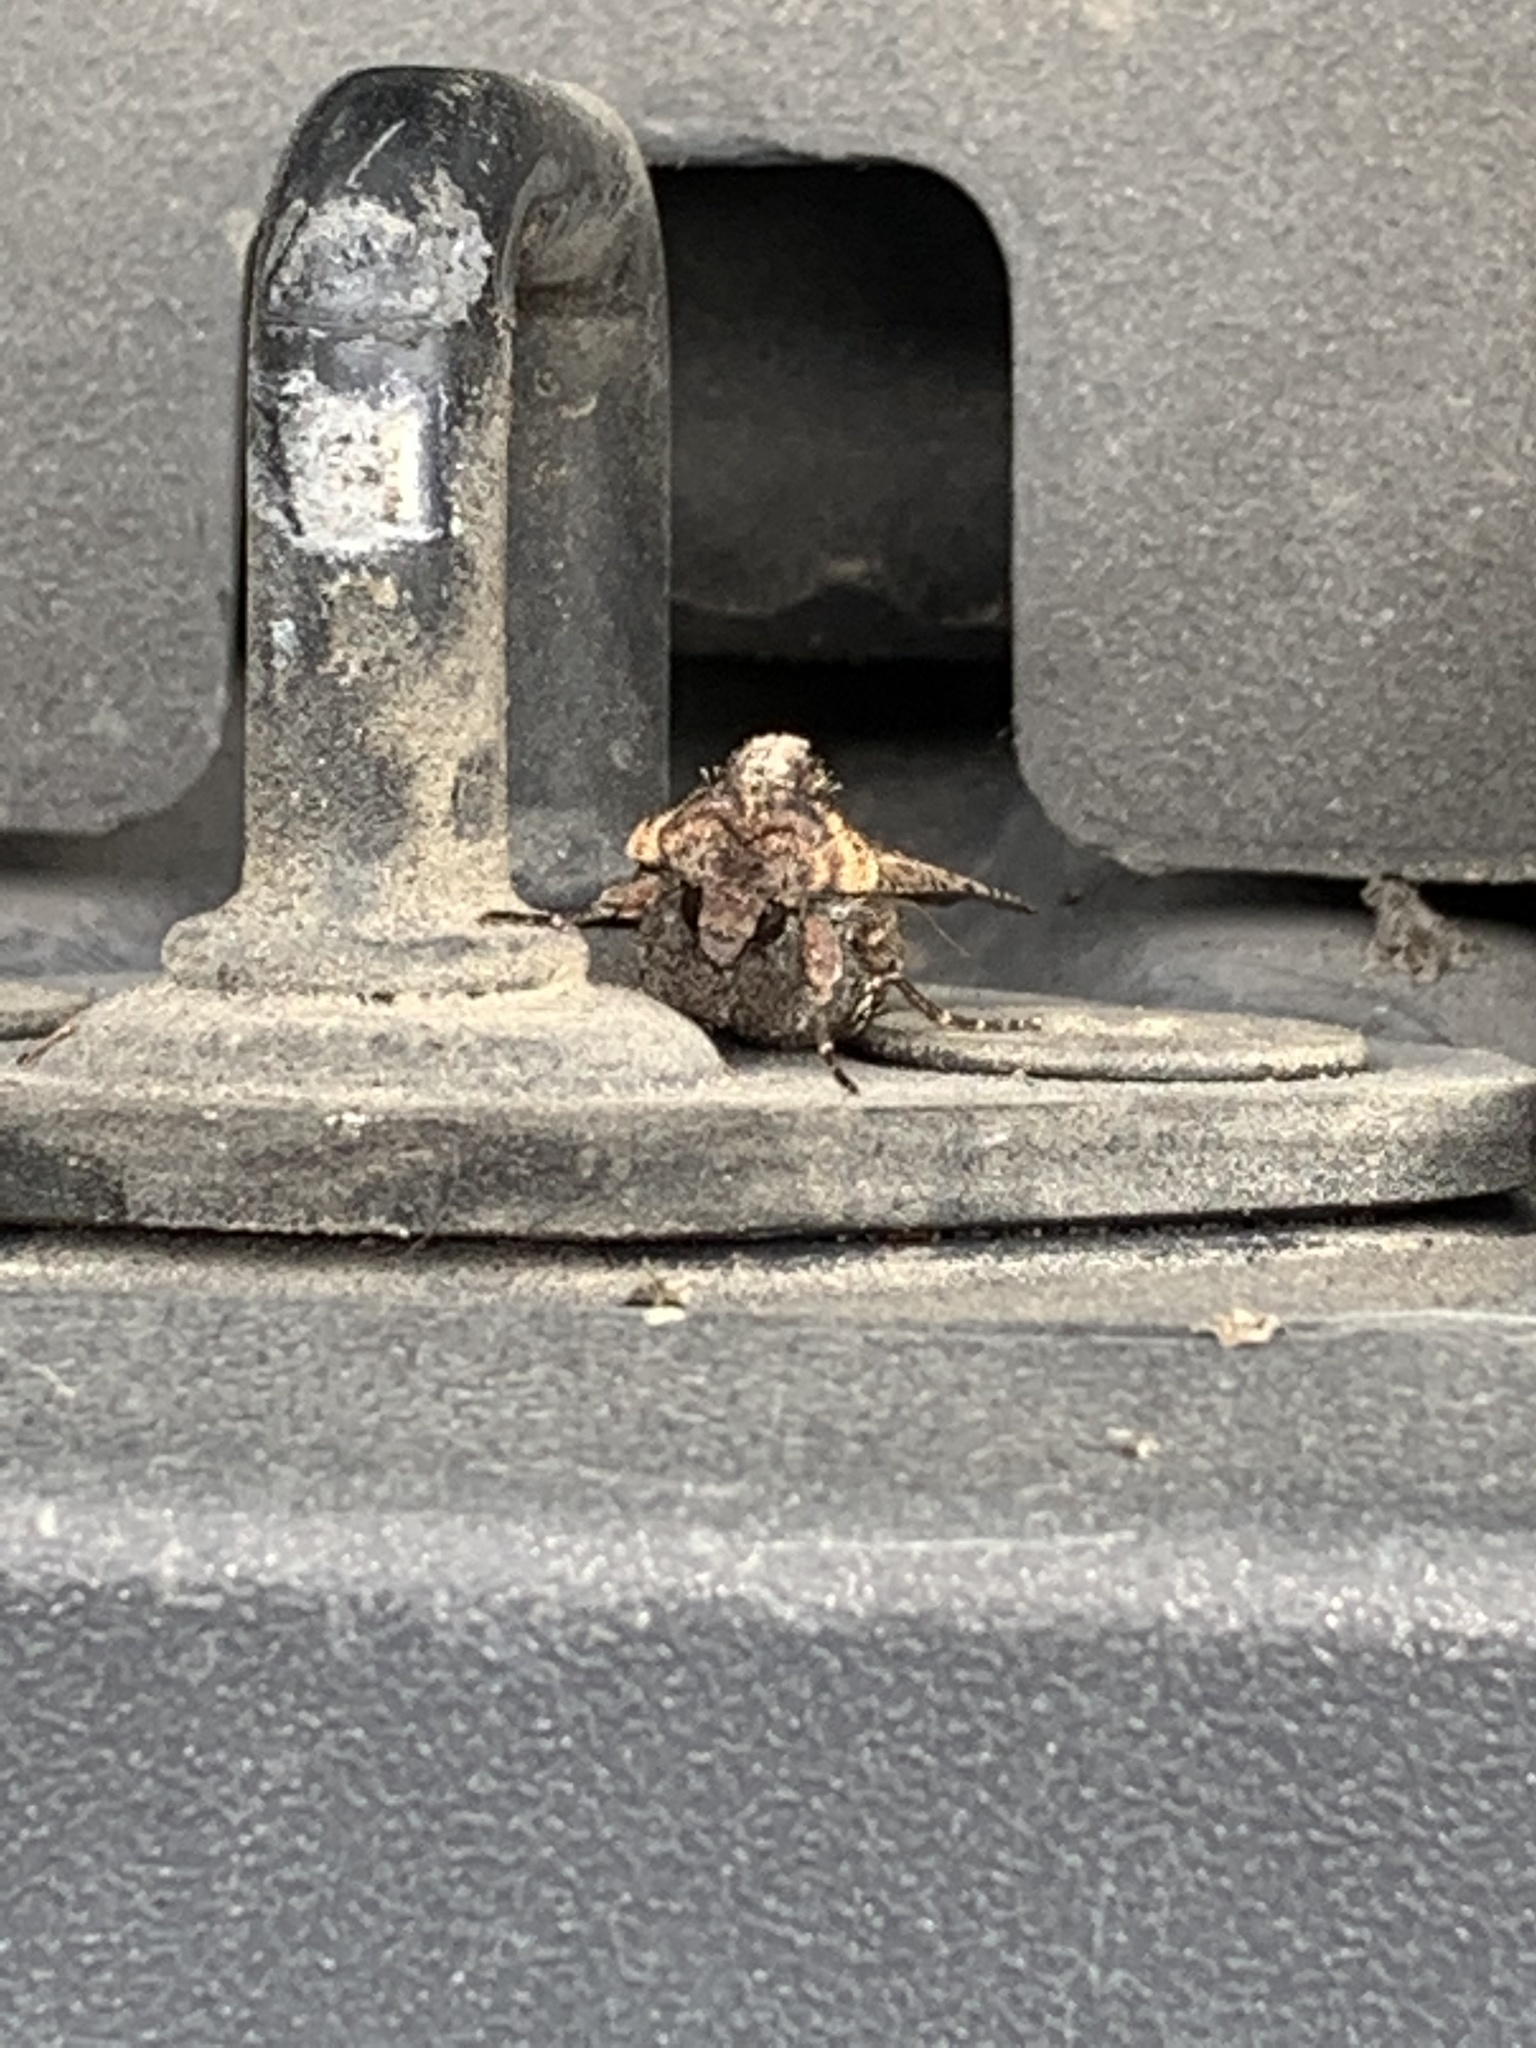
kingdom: Animalia
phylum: Arthropoda
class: Insecta
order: Lepidoptera
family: Noctuidae
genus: Peridroma
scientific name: Peridroma saucia
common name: Pearly underwing
